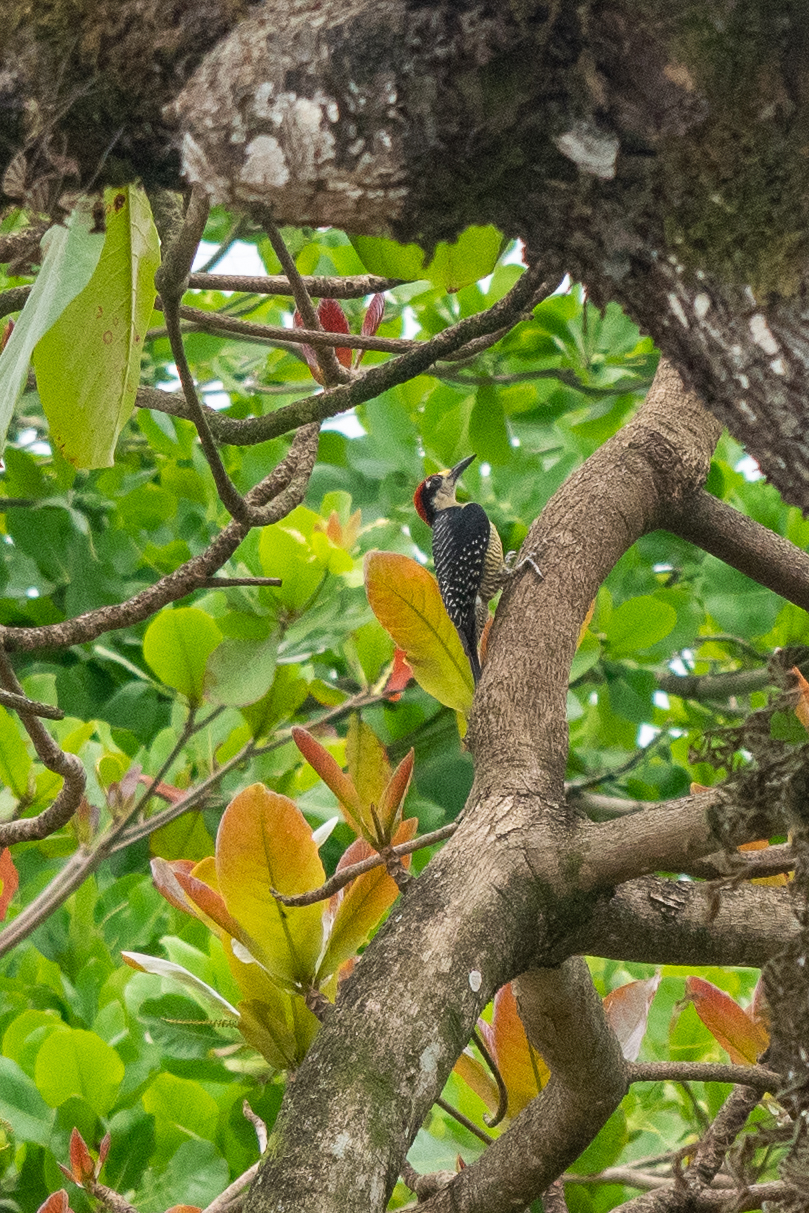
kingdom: Animalia
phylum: Chordata
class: Aves
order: Piciformes
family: Picidae
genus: Melanerpes
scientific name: Melanerpes pucherani
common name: Black-cheeked woodpecker
